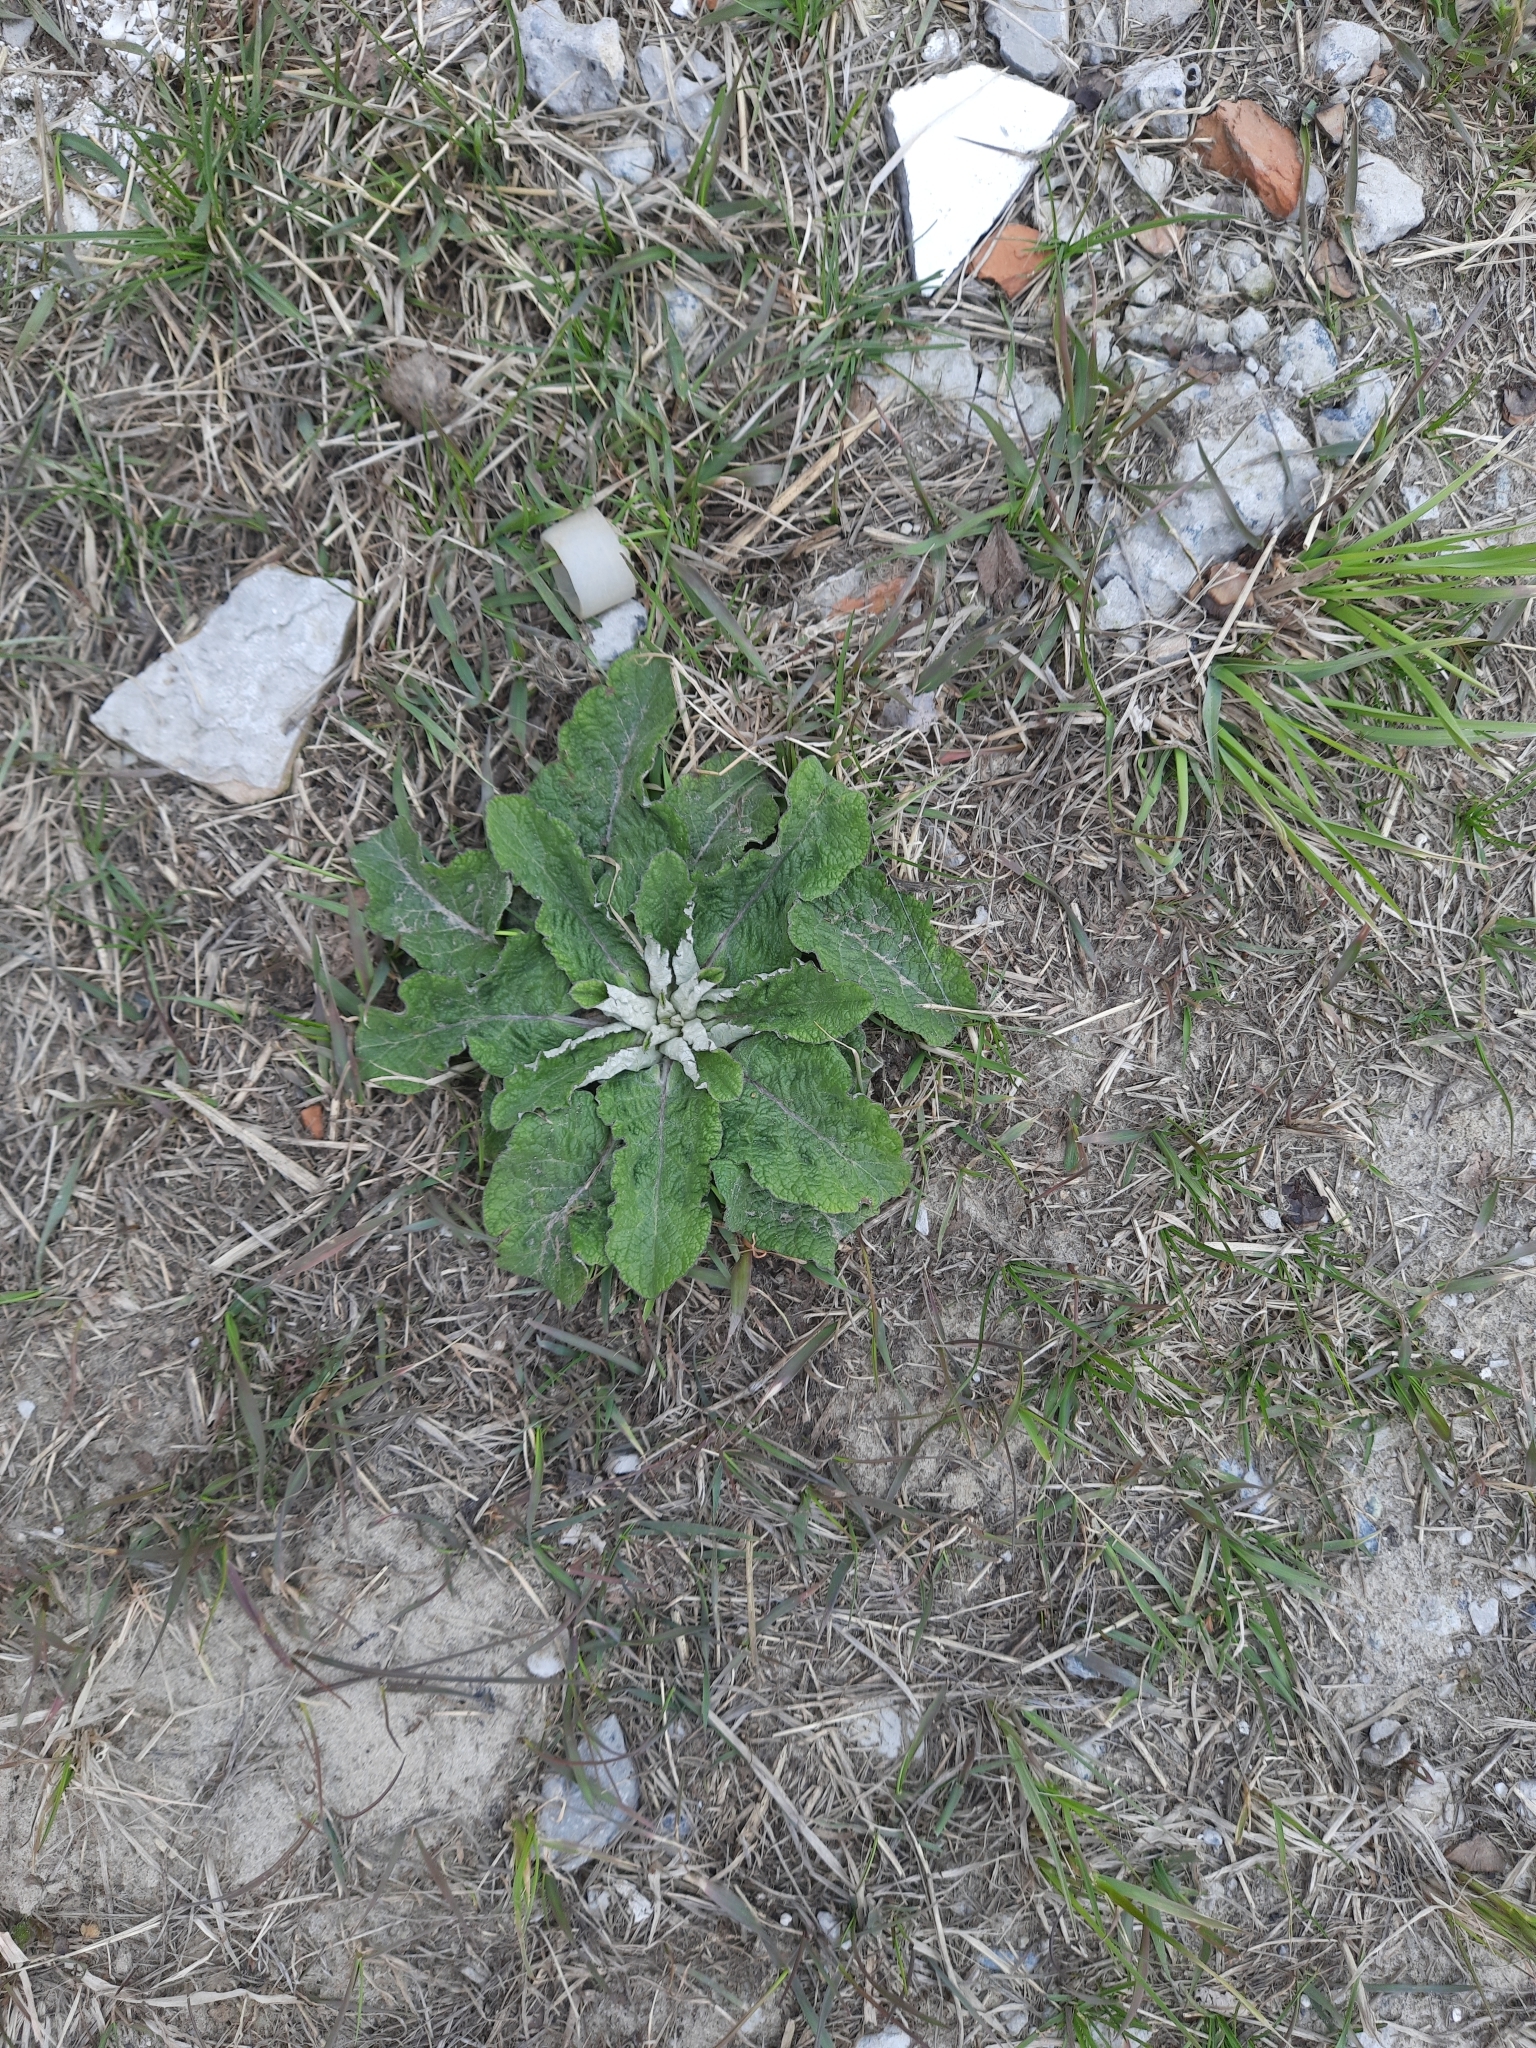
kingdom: Plantae
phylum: Tracheophyta
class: Magnoliopsida
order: Asterales
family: Asteraceae
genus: Arctium
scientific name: Arctium tomentosum
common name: Woolly burdock
